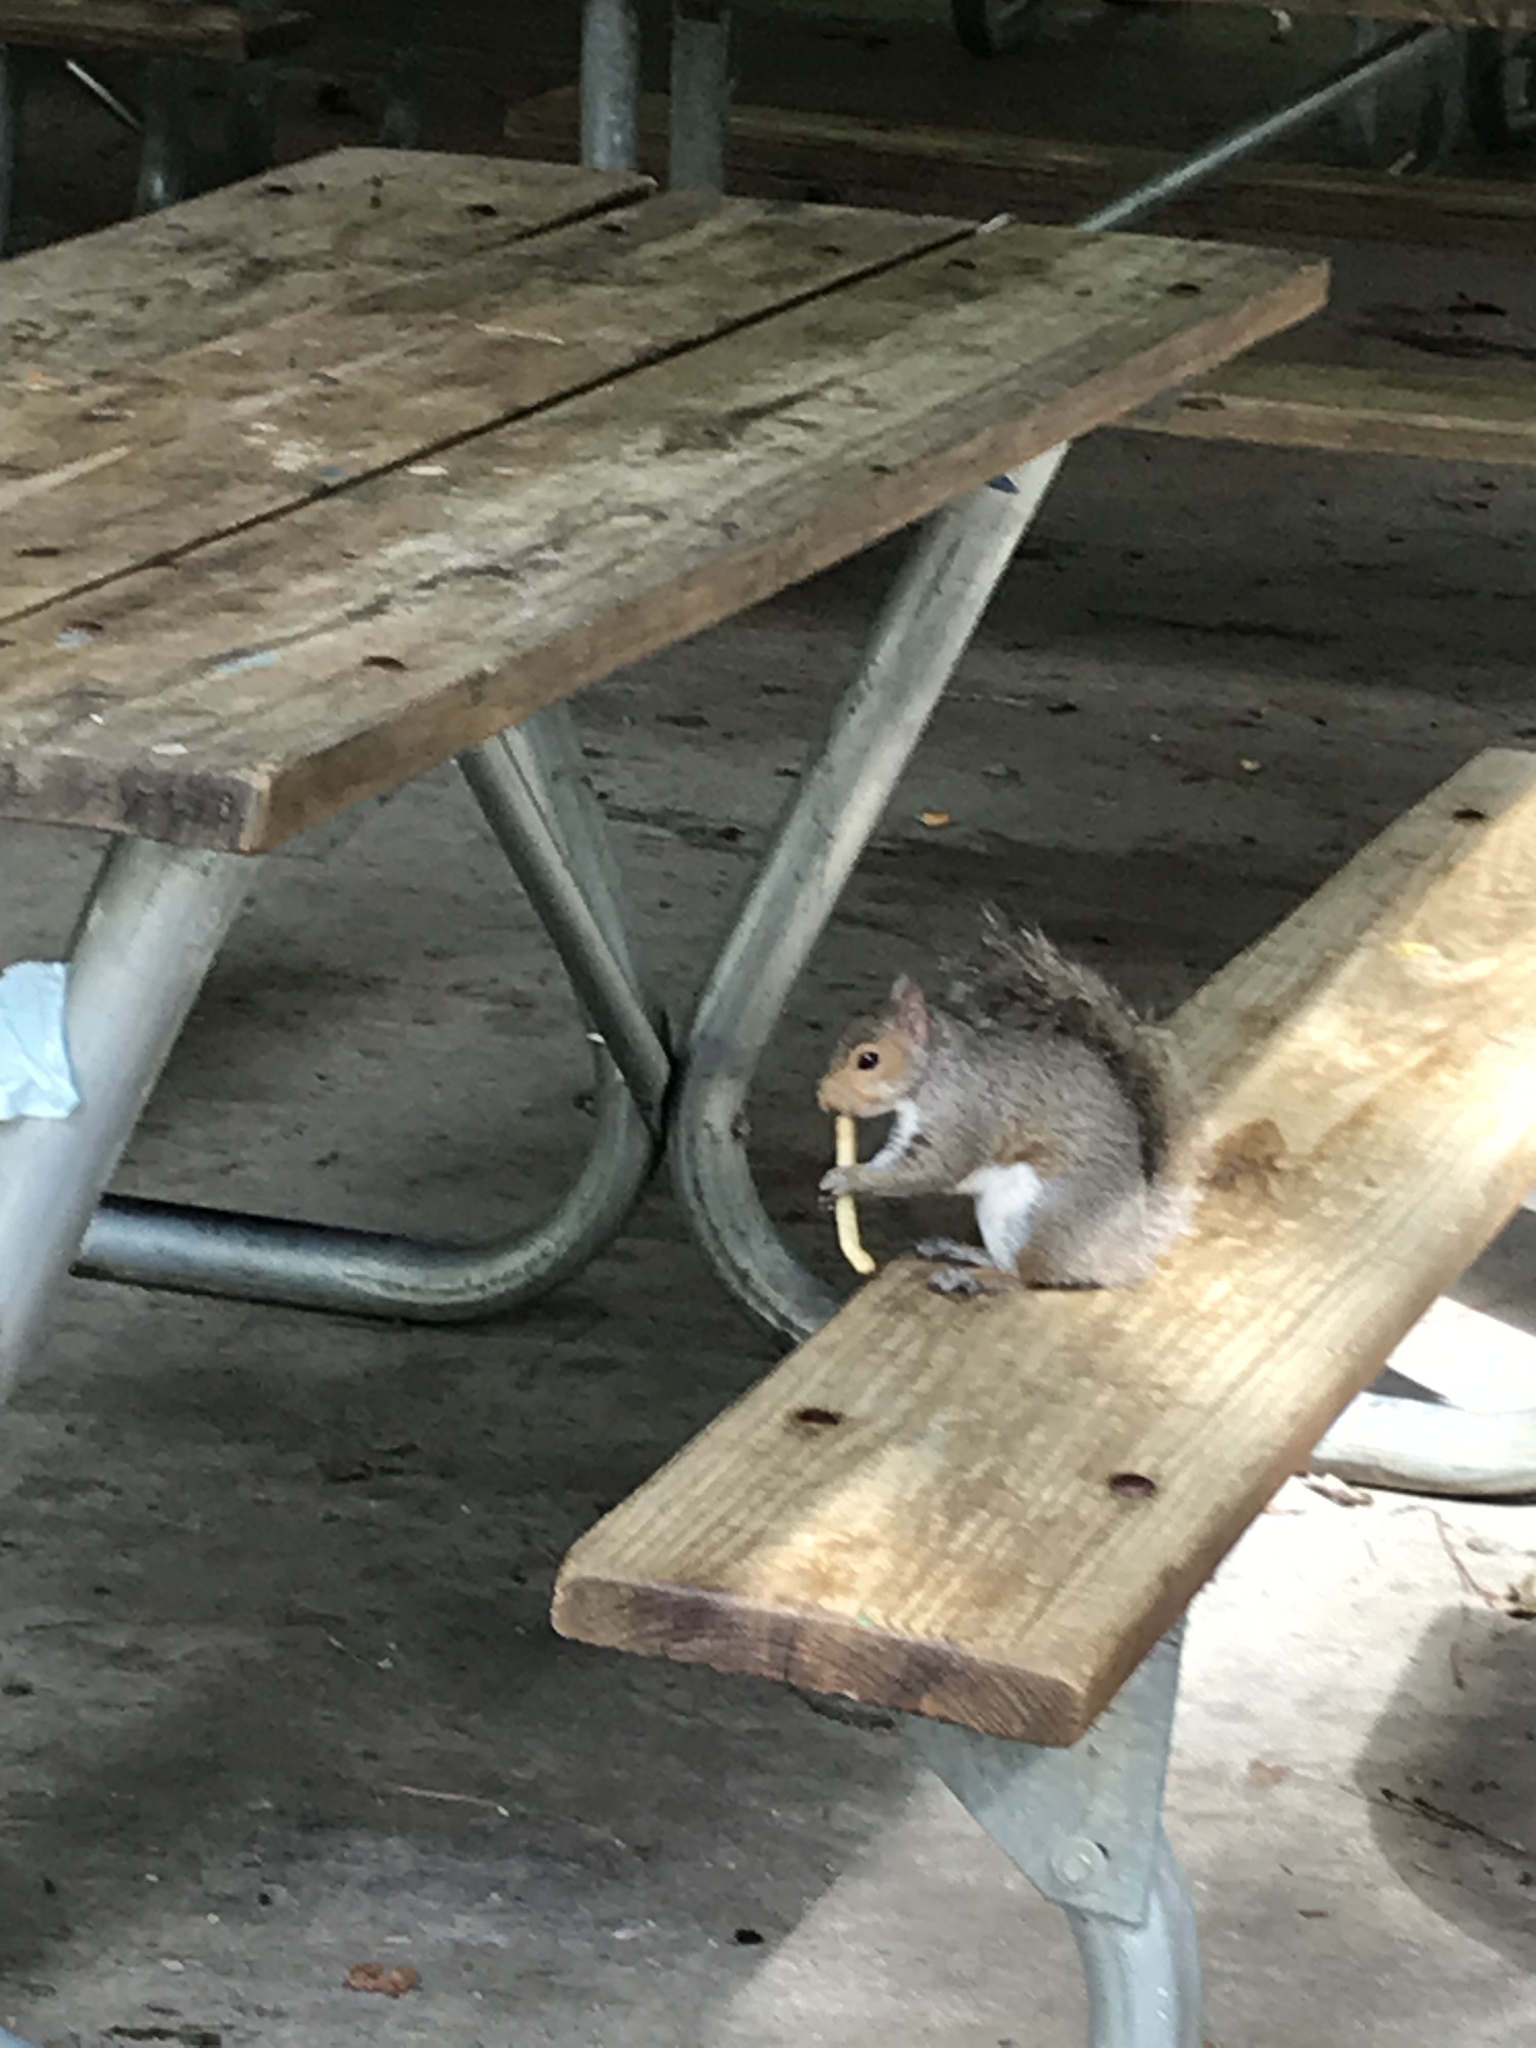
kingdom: Animalia
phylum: Chordata
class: Mammalia
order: Rodentia
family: Sciuridae
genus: Sciurus
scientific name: Sciurus carolinensis
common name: Eastern gray squirrel
